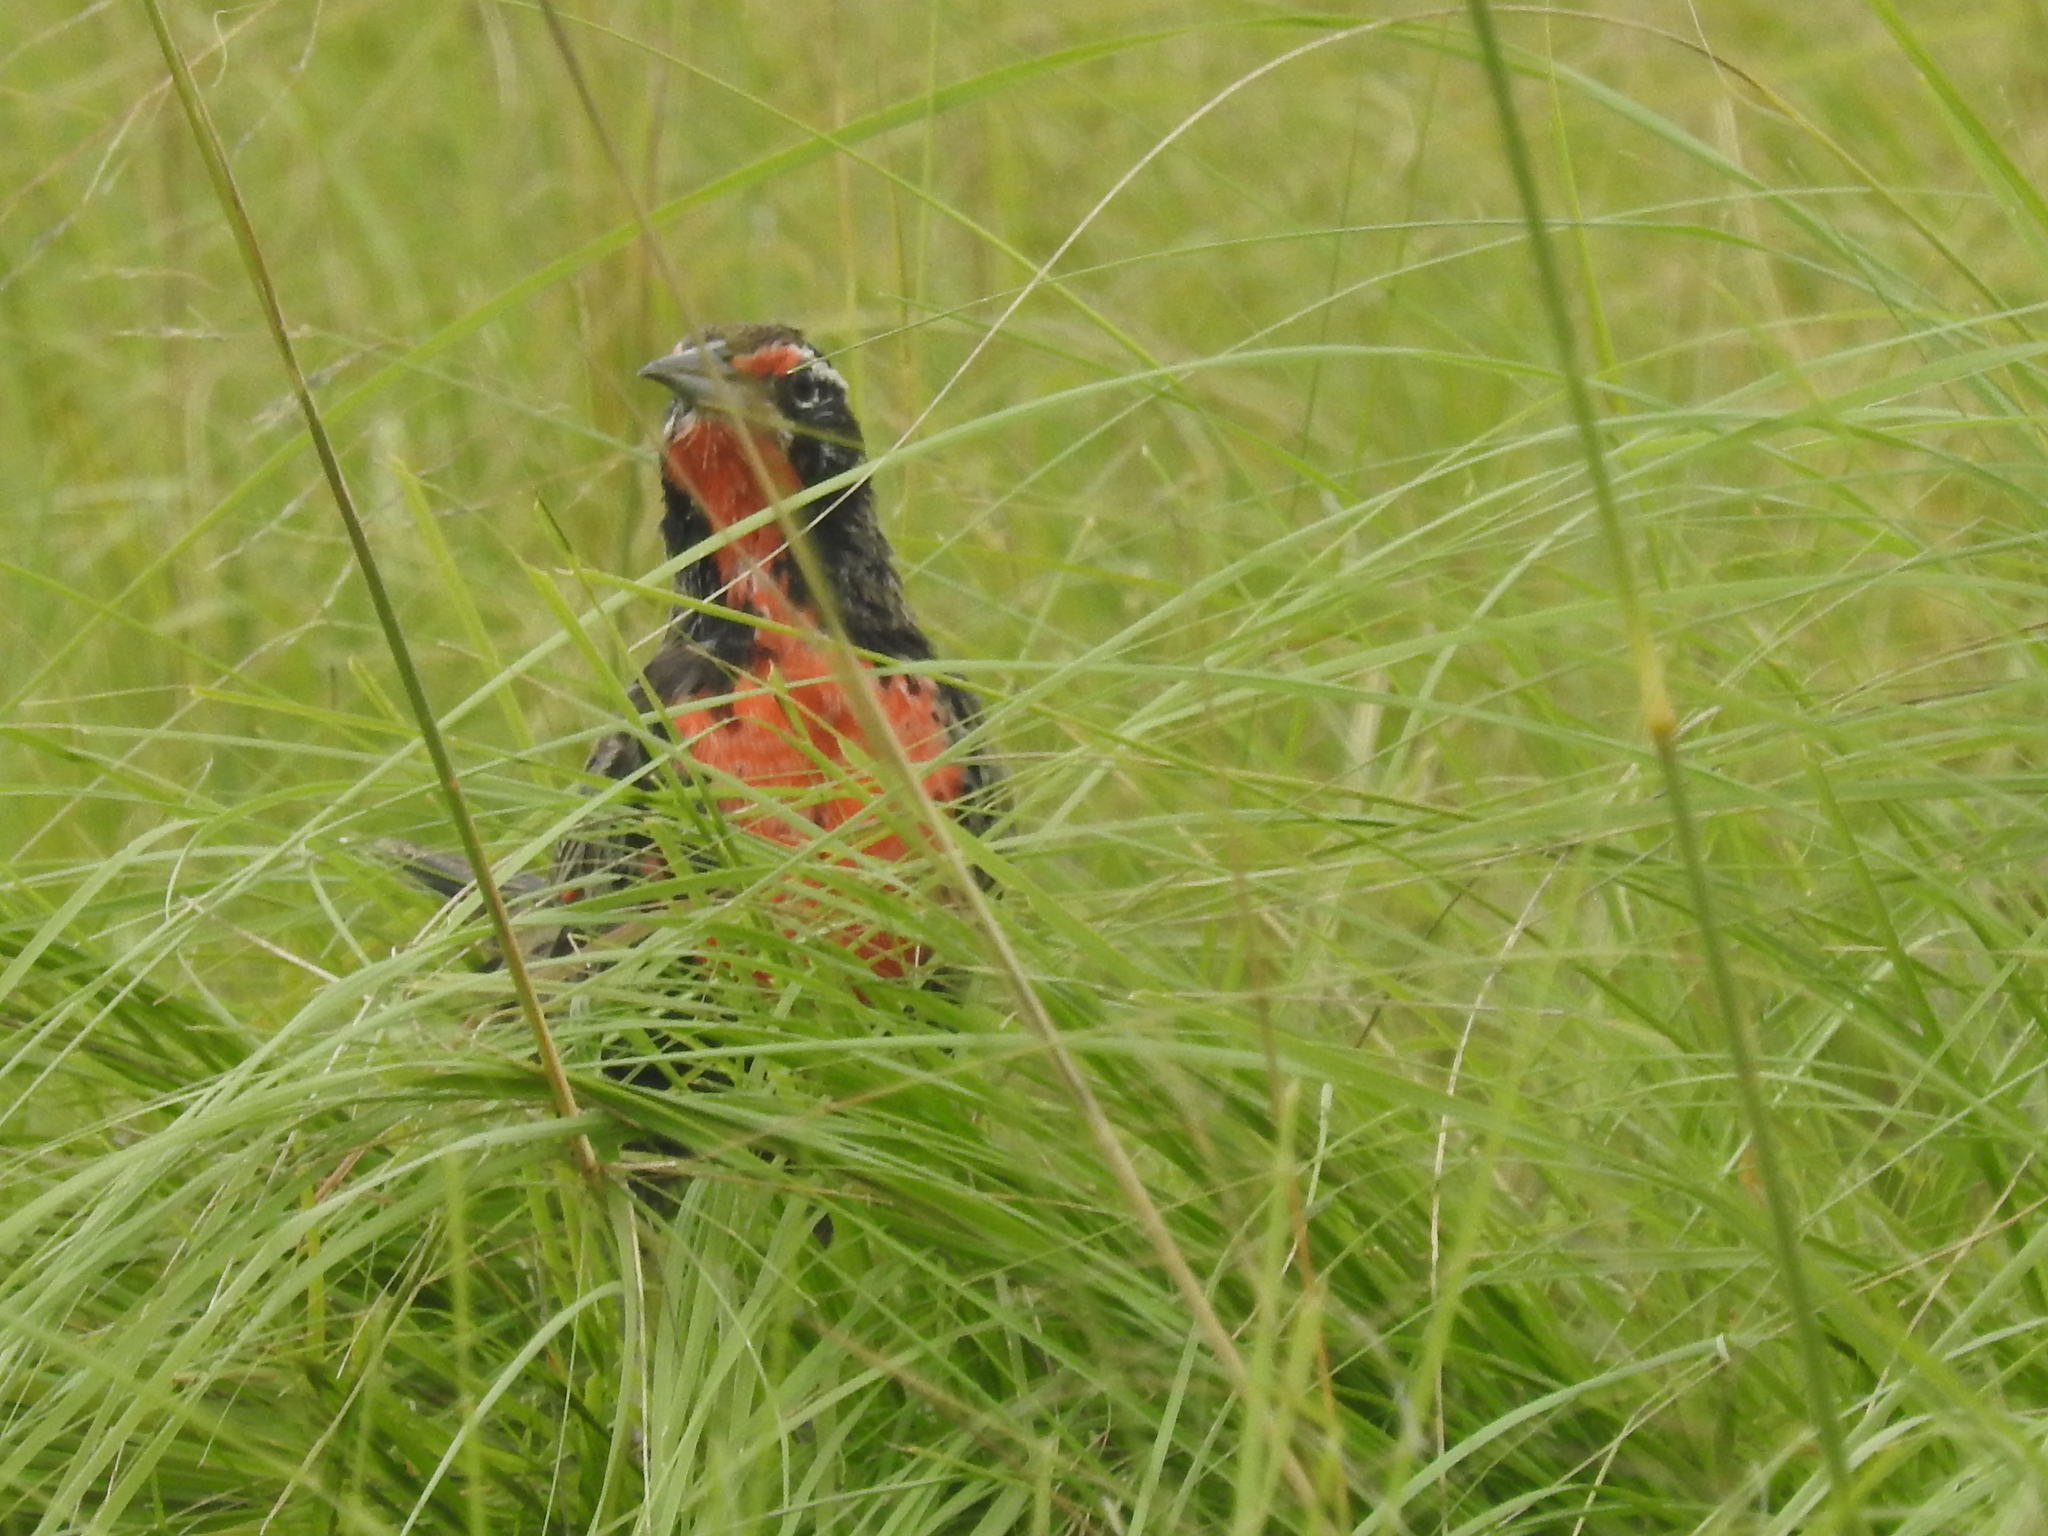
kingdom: Animalia
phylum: Chordata
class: Aves
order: Passeriformes
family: Icteridae
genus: Sturnella
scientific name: Sturnella loyca
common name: Long-tailed meadowlark
